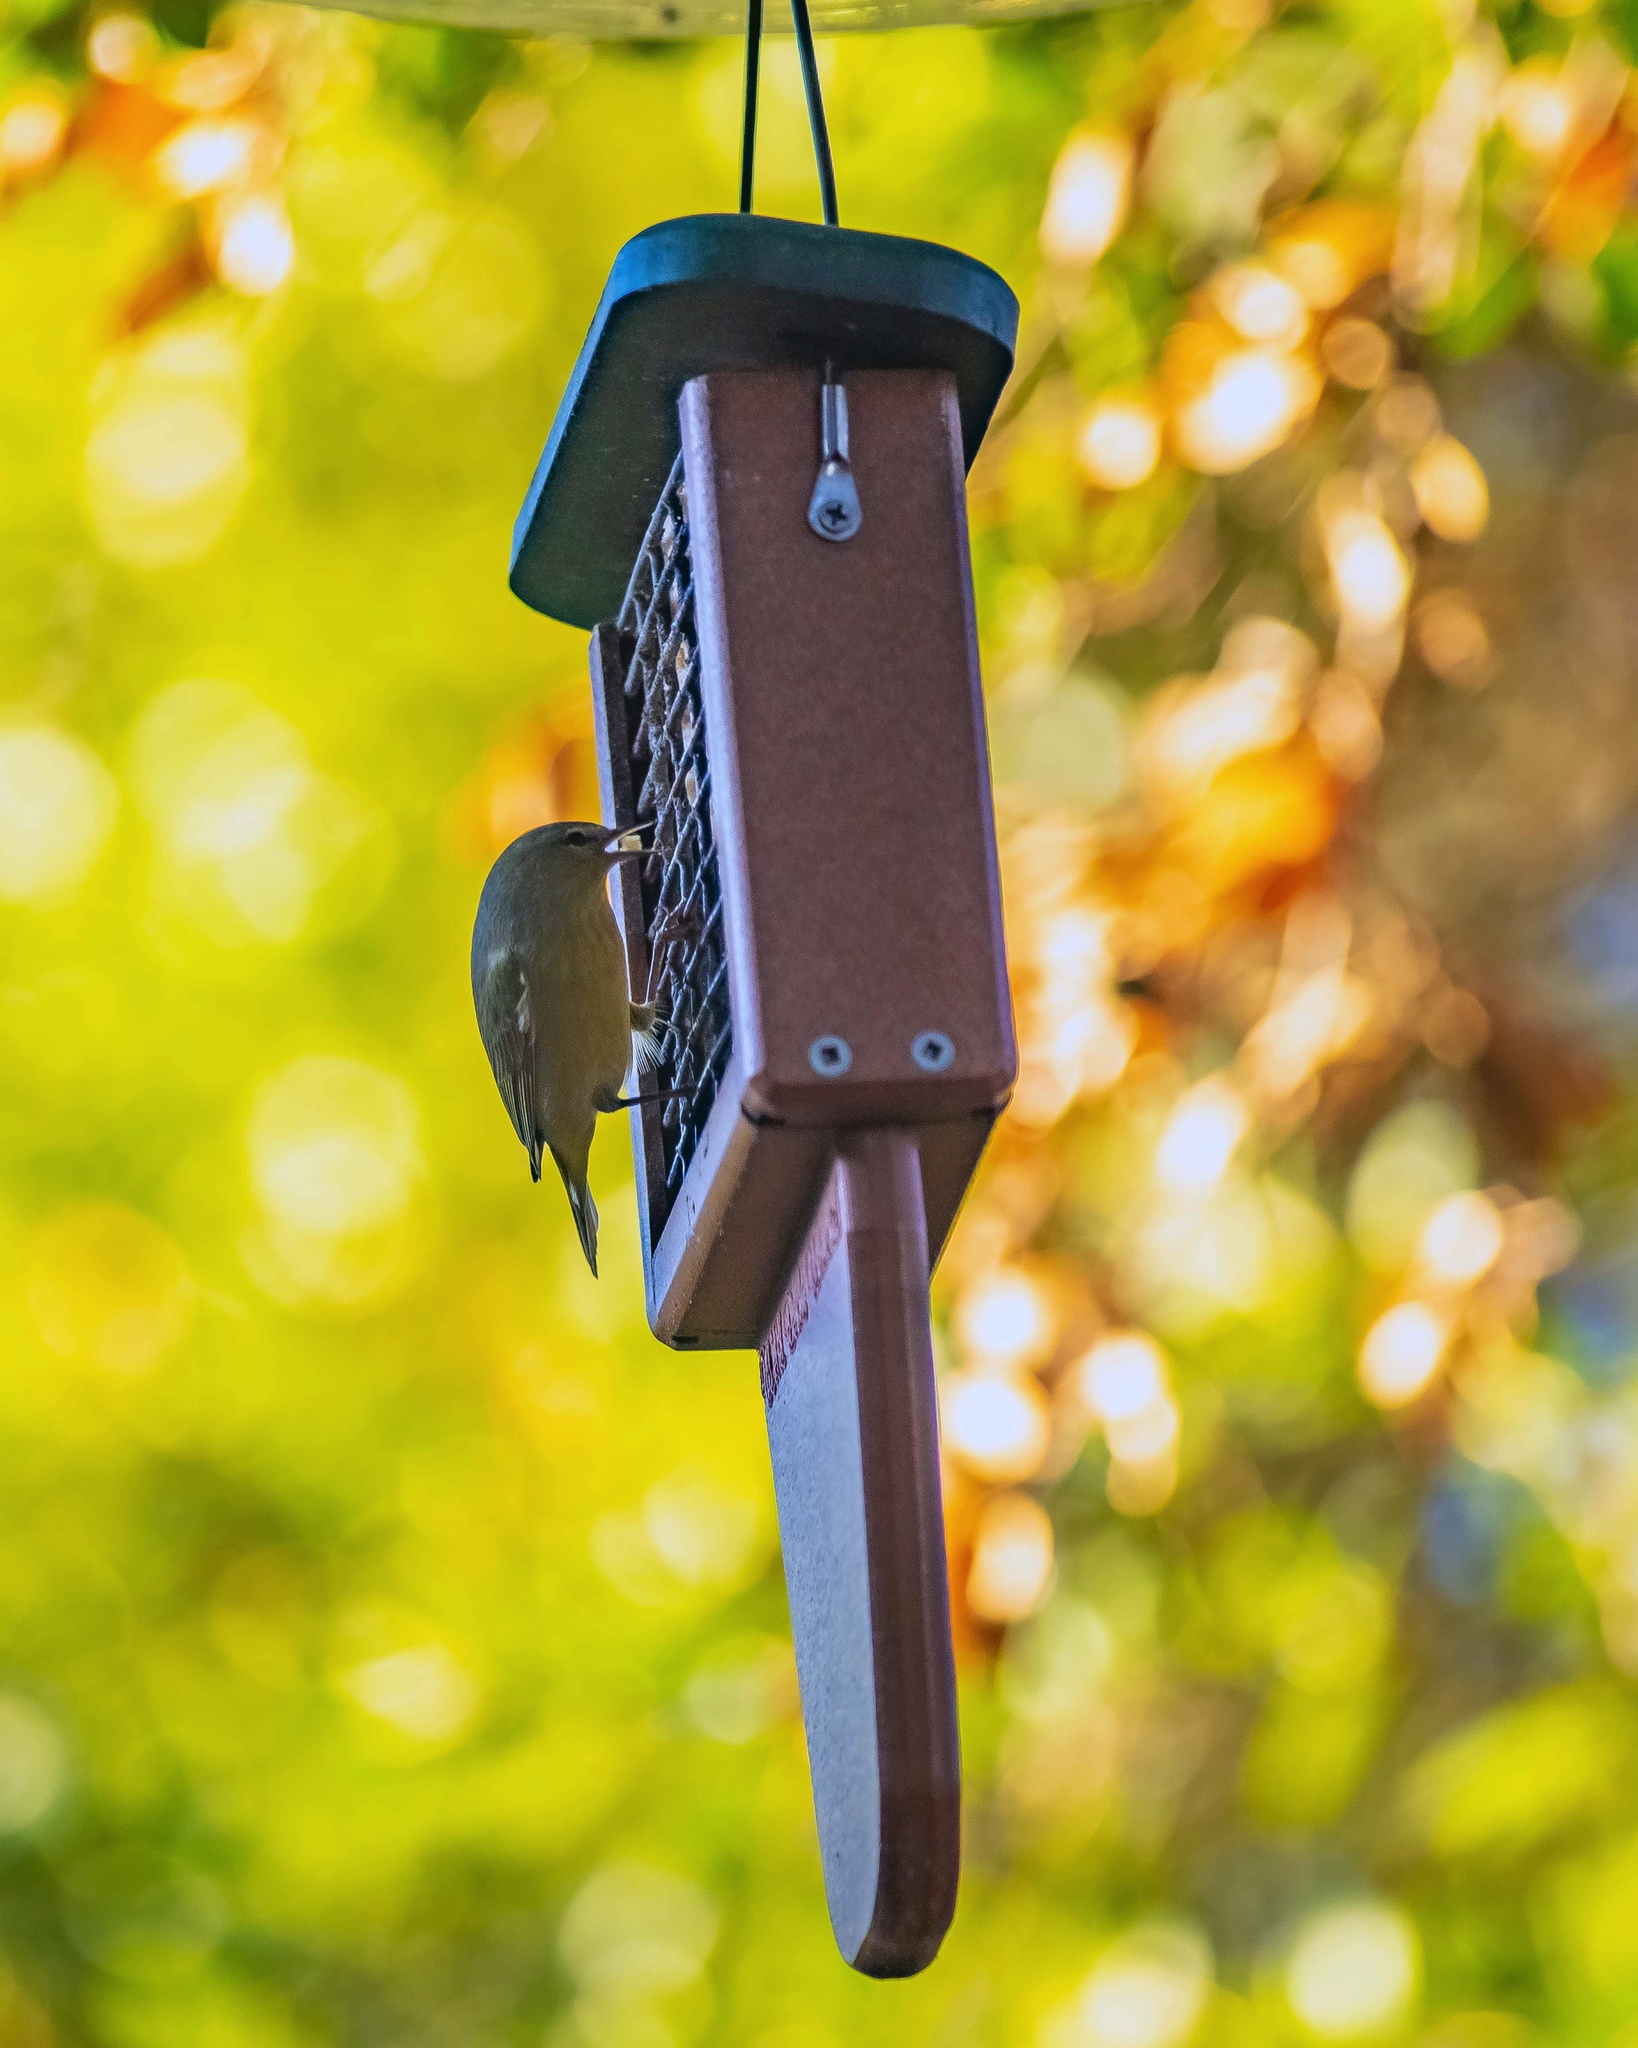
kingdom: Animalia
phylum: Chordata
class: Aves
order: Passeriformes
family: Parulidae
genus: Leiothlypis
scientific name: Leiothlypis celata
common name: Orange-crowned warbler
